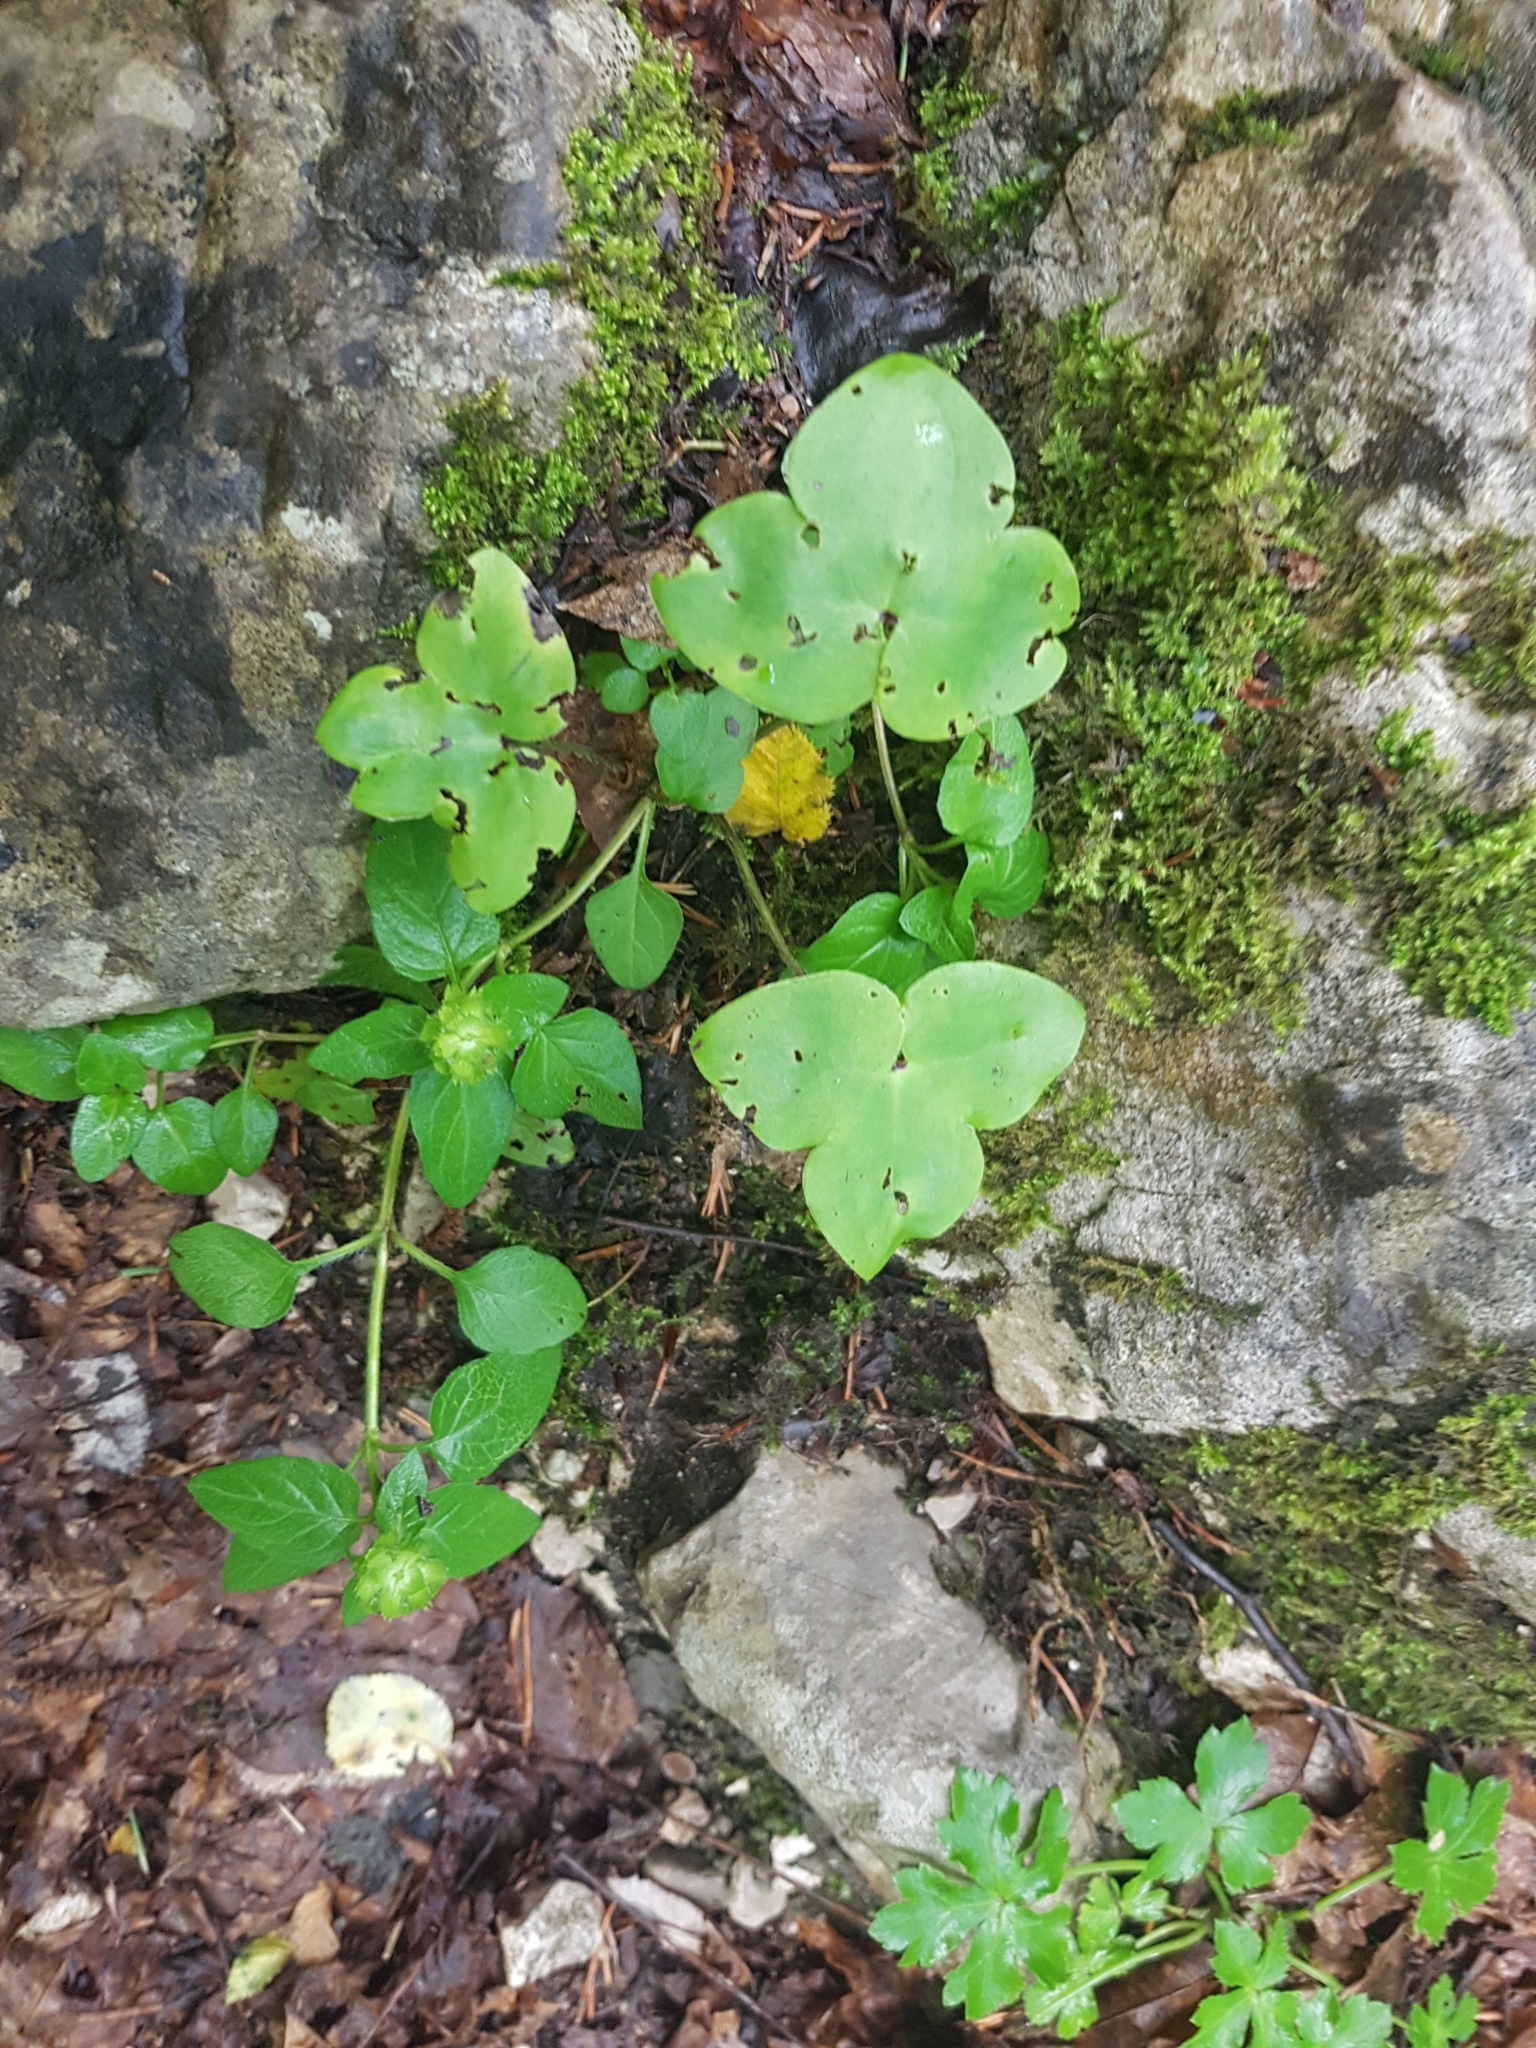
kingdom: Plantae
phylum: Tracheophyta
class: Magnoliopsida
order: Ranunculales
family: Ranunculaceae
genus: Hepatica
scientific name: Hepatica nobilis
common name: Liverleaf
